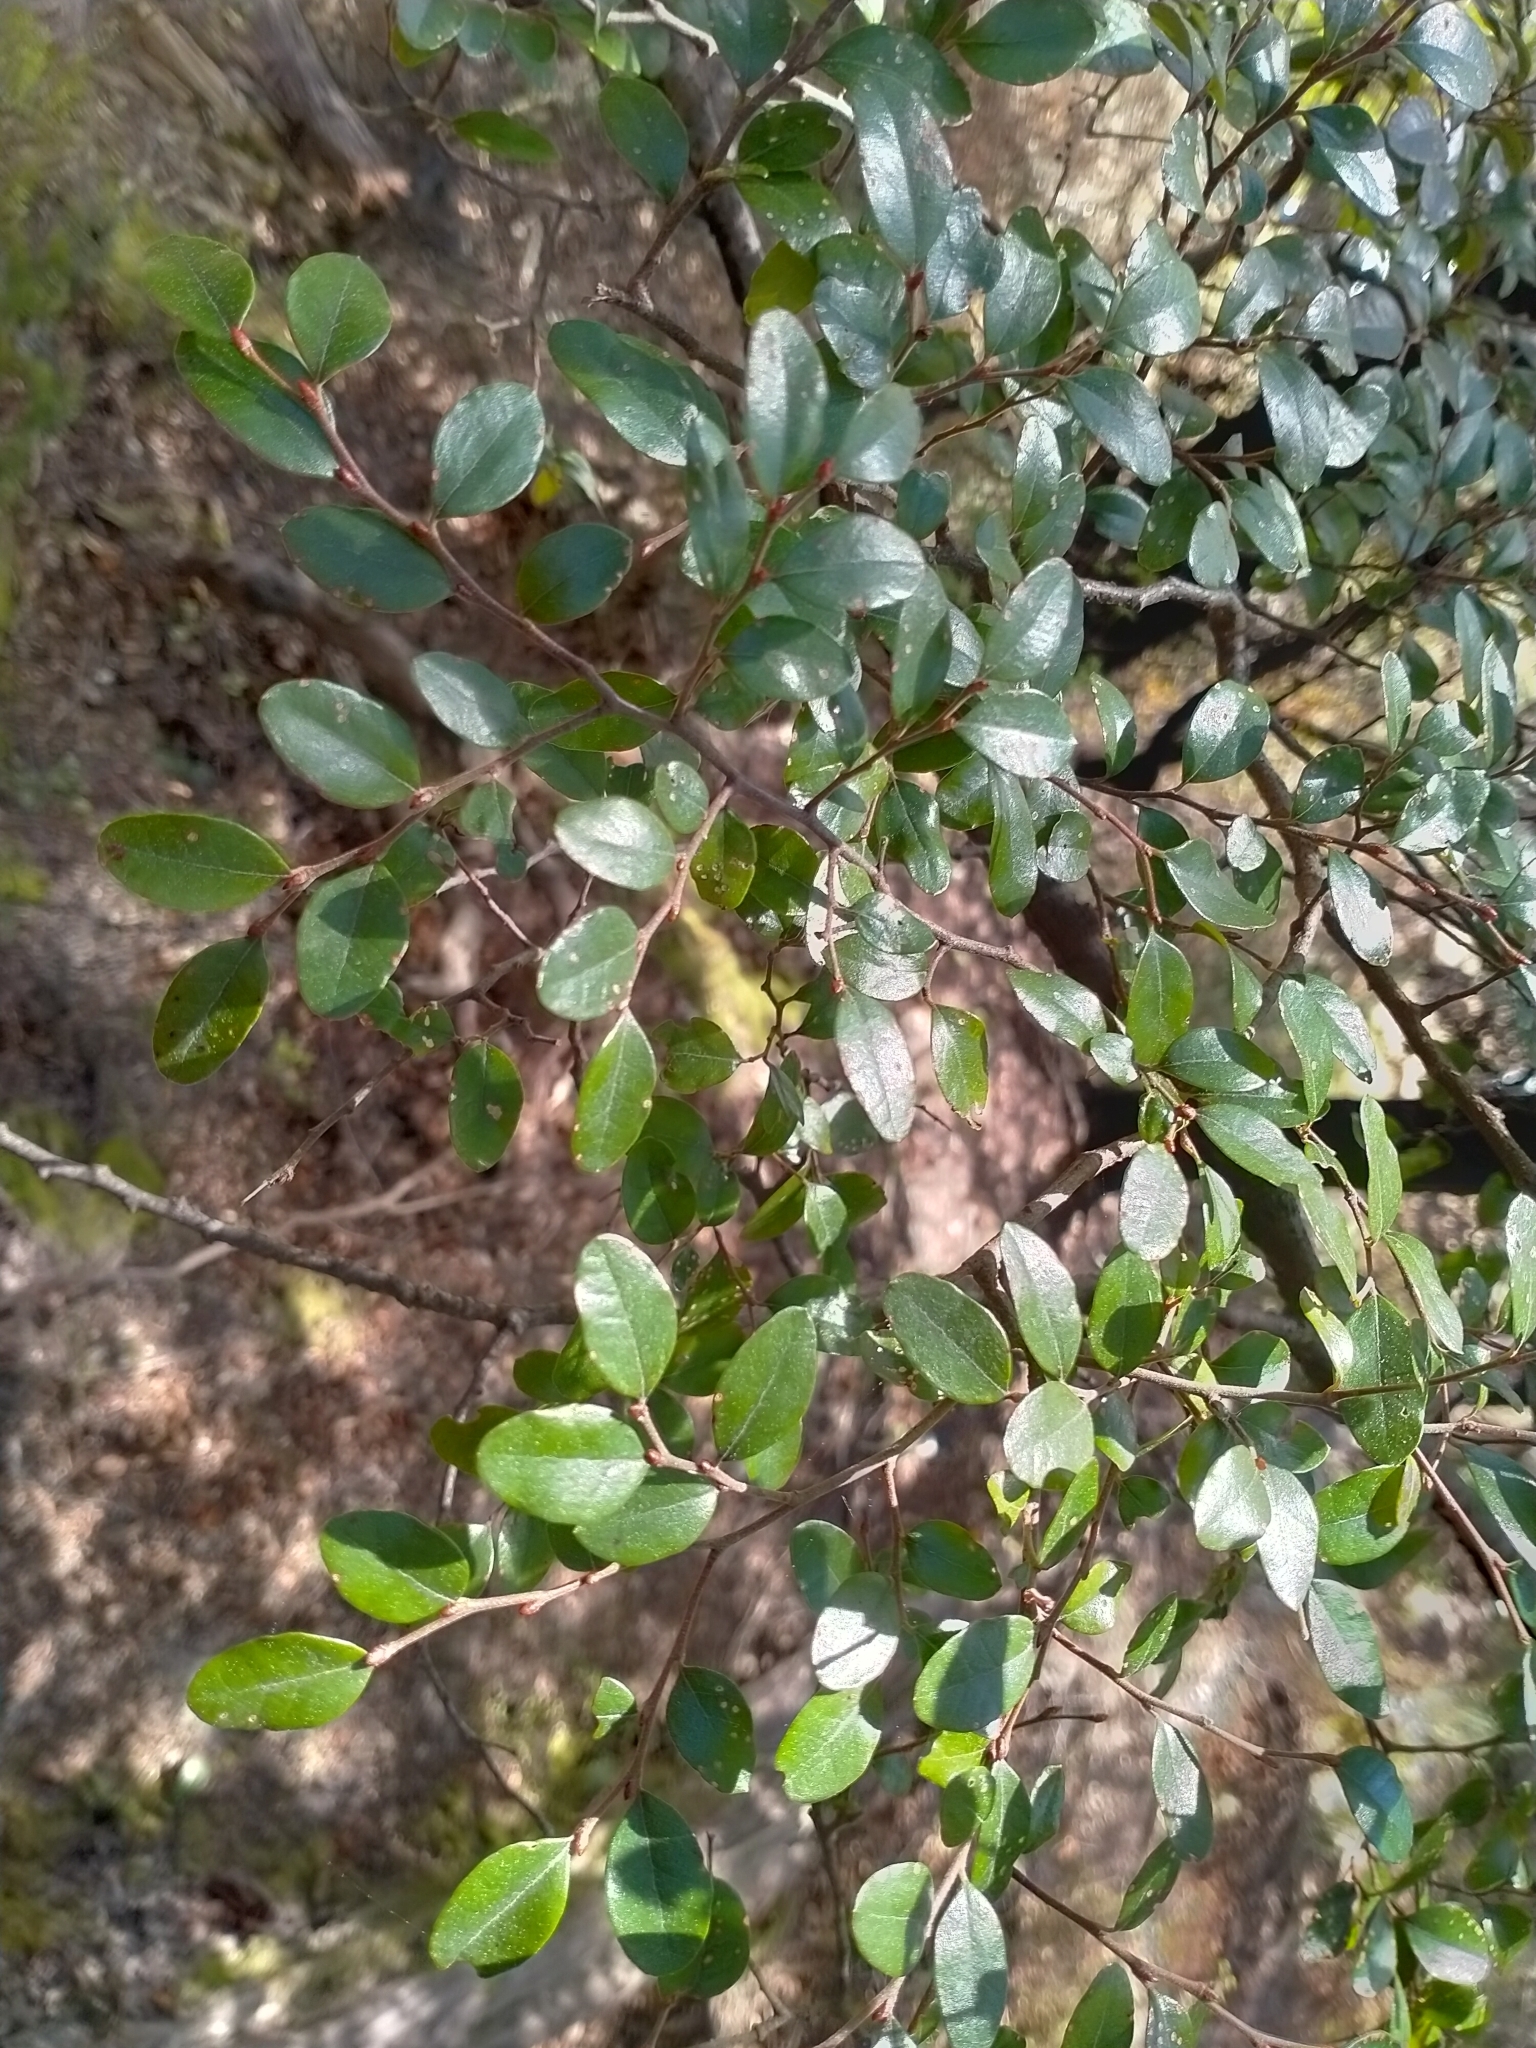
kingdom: Plantae
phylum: Tracheophyta
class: Magnoliopsida
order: Fagales
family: Nothofagaceae
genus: Nothofagus
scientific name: Nothofagus solandri
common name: Black beech
